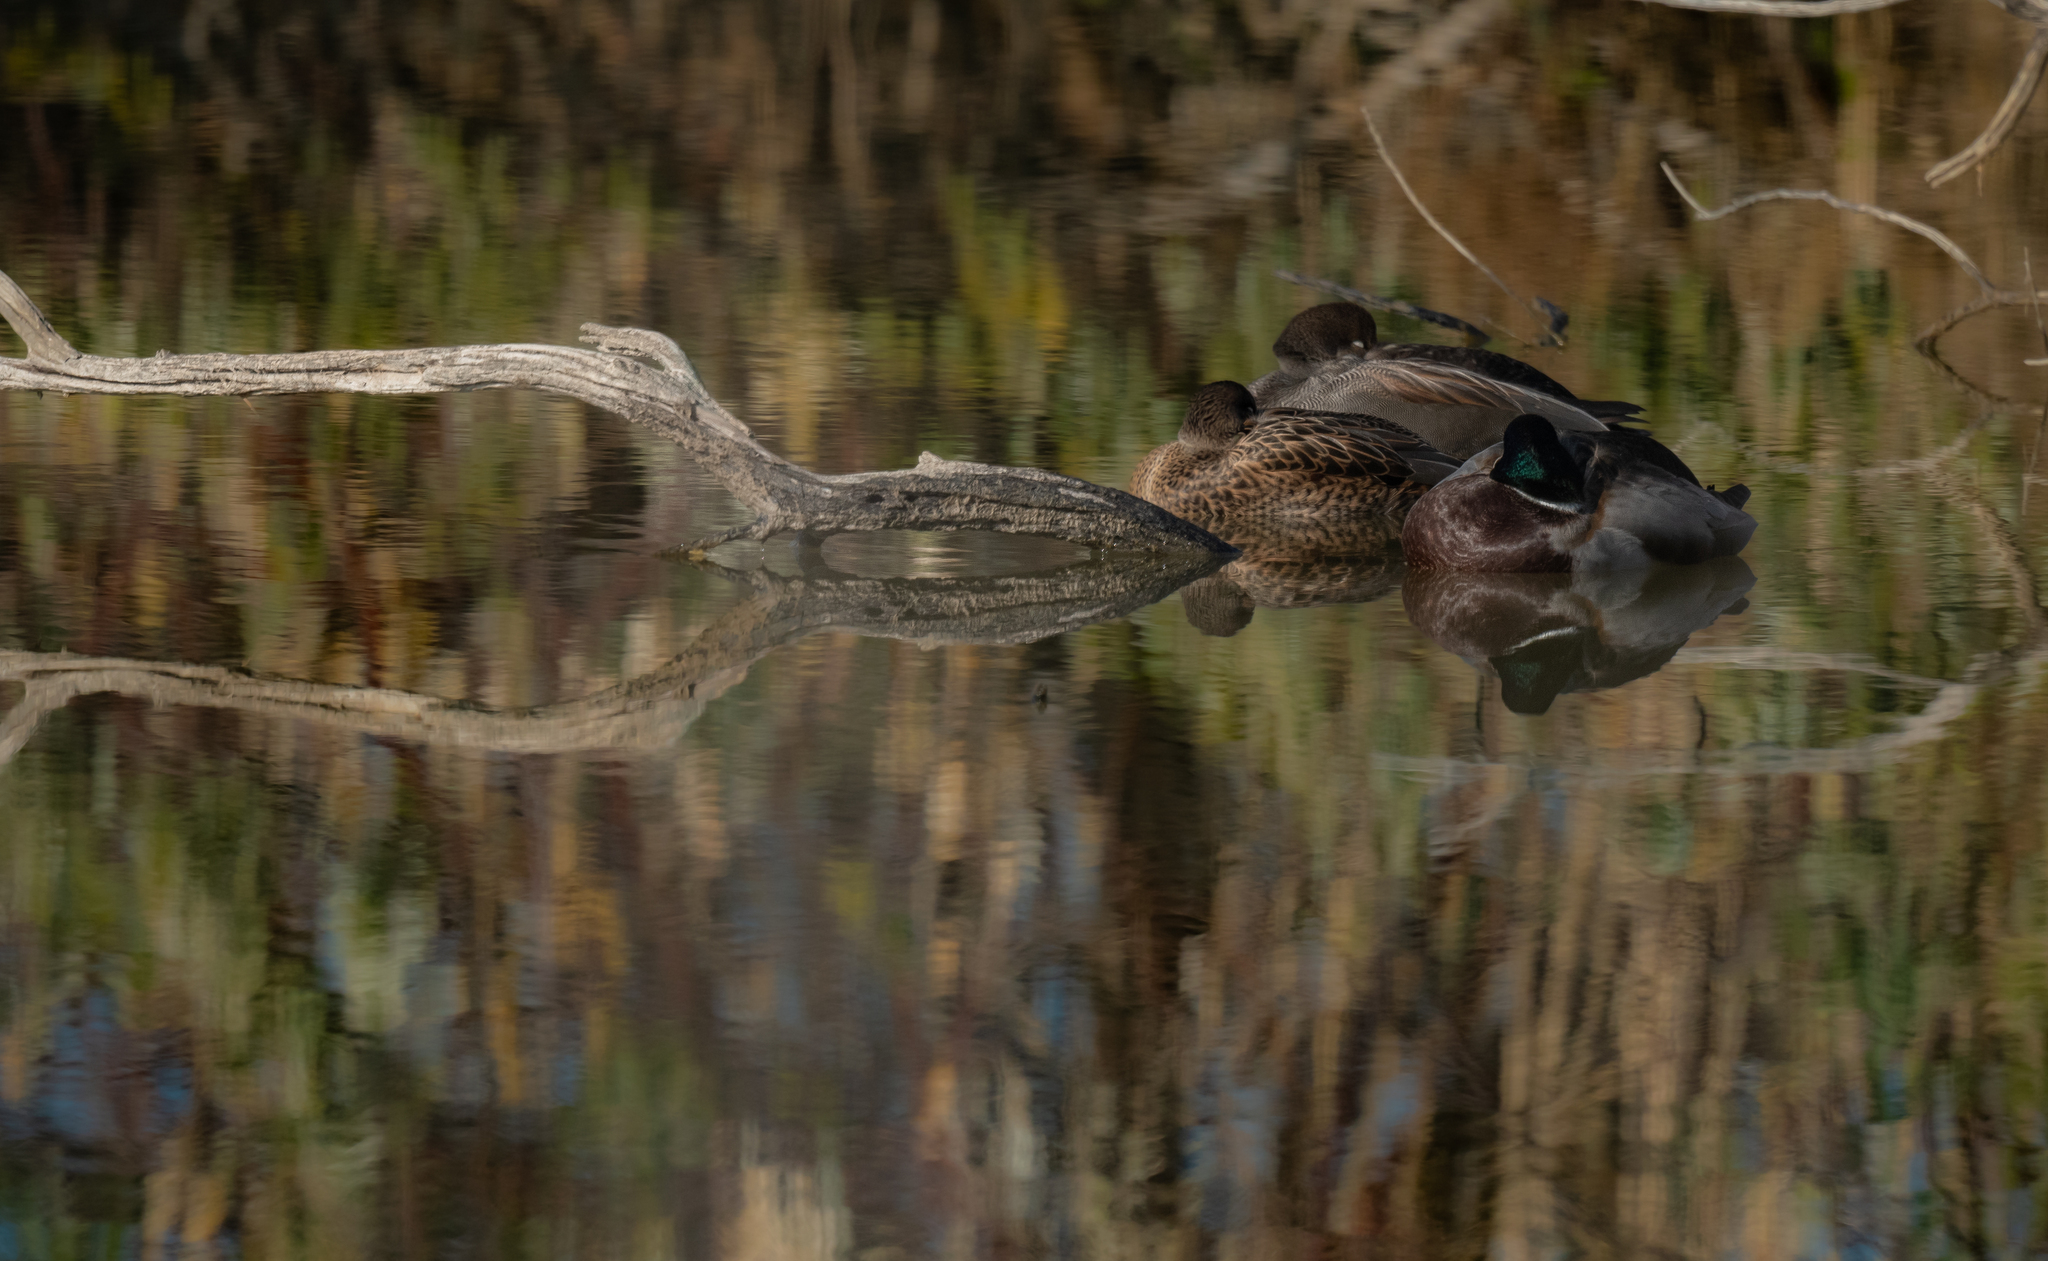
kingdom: Animalia
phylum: Chordata
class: Aves
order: Anseriformes
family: Anatidae
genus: Mareca
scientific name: Mareca strepera
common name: Gadwall
